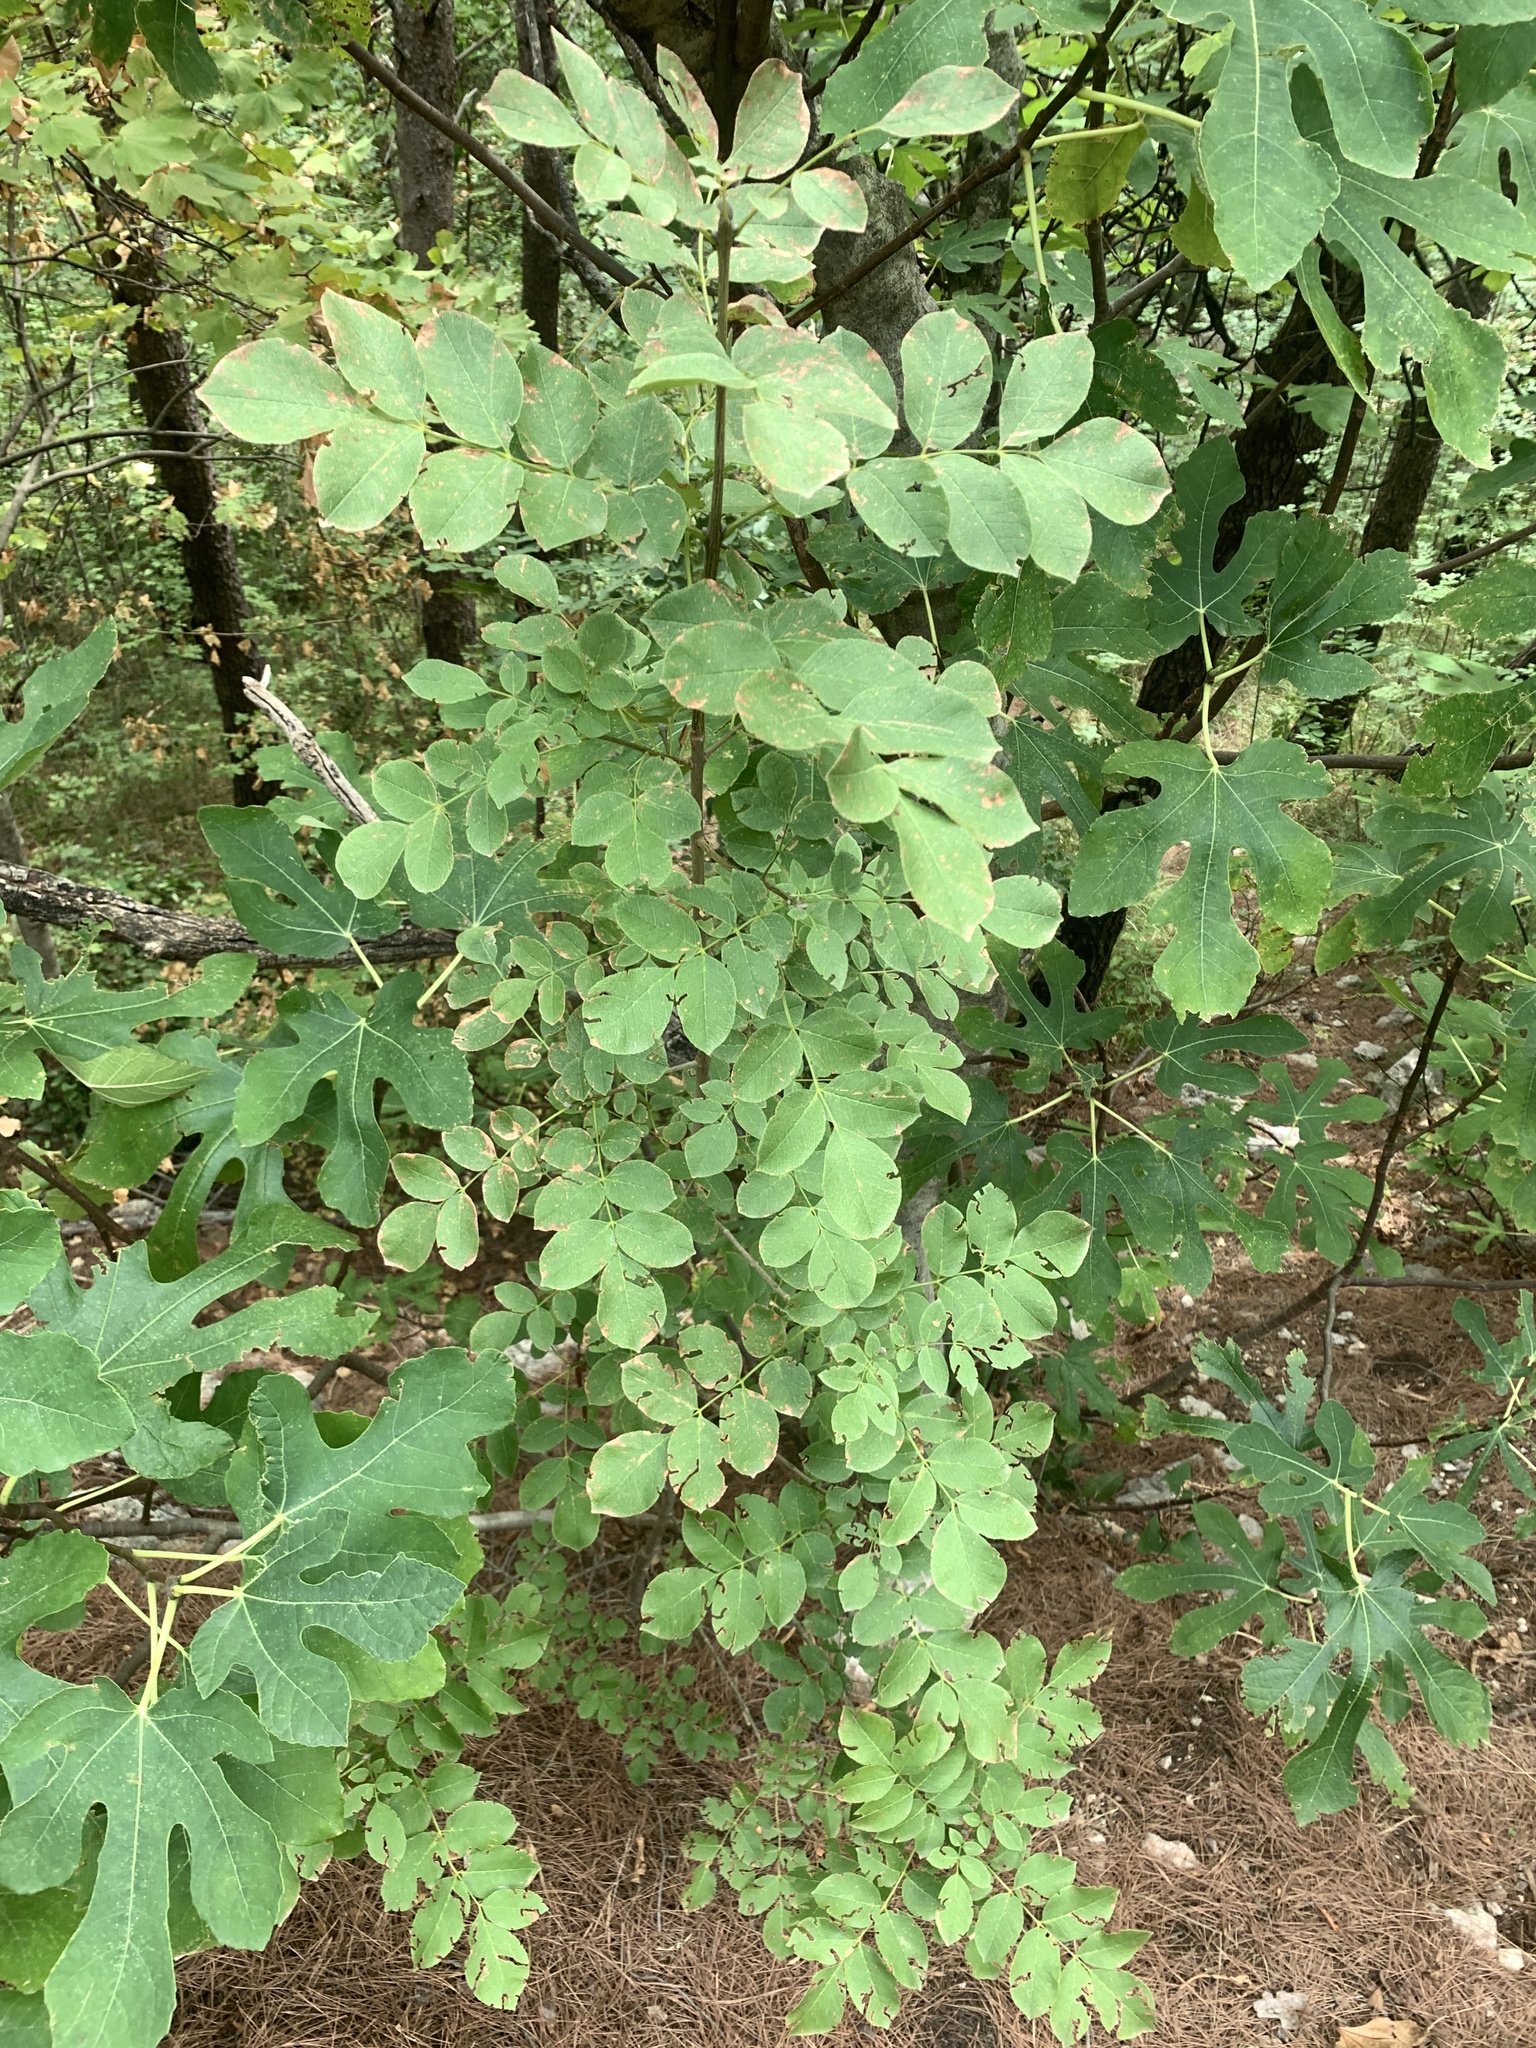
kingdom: Plantae
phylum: Tracheophyta
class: Magnoliopsida
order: Lamiales
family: Oleaceae
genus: Fraxinus
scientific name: Fraxinus ornus
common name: Manna ash
